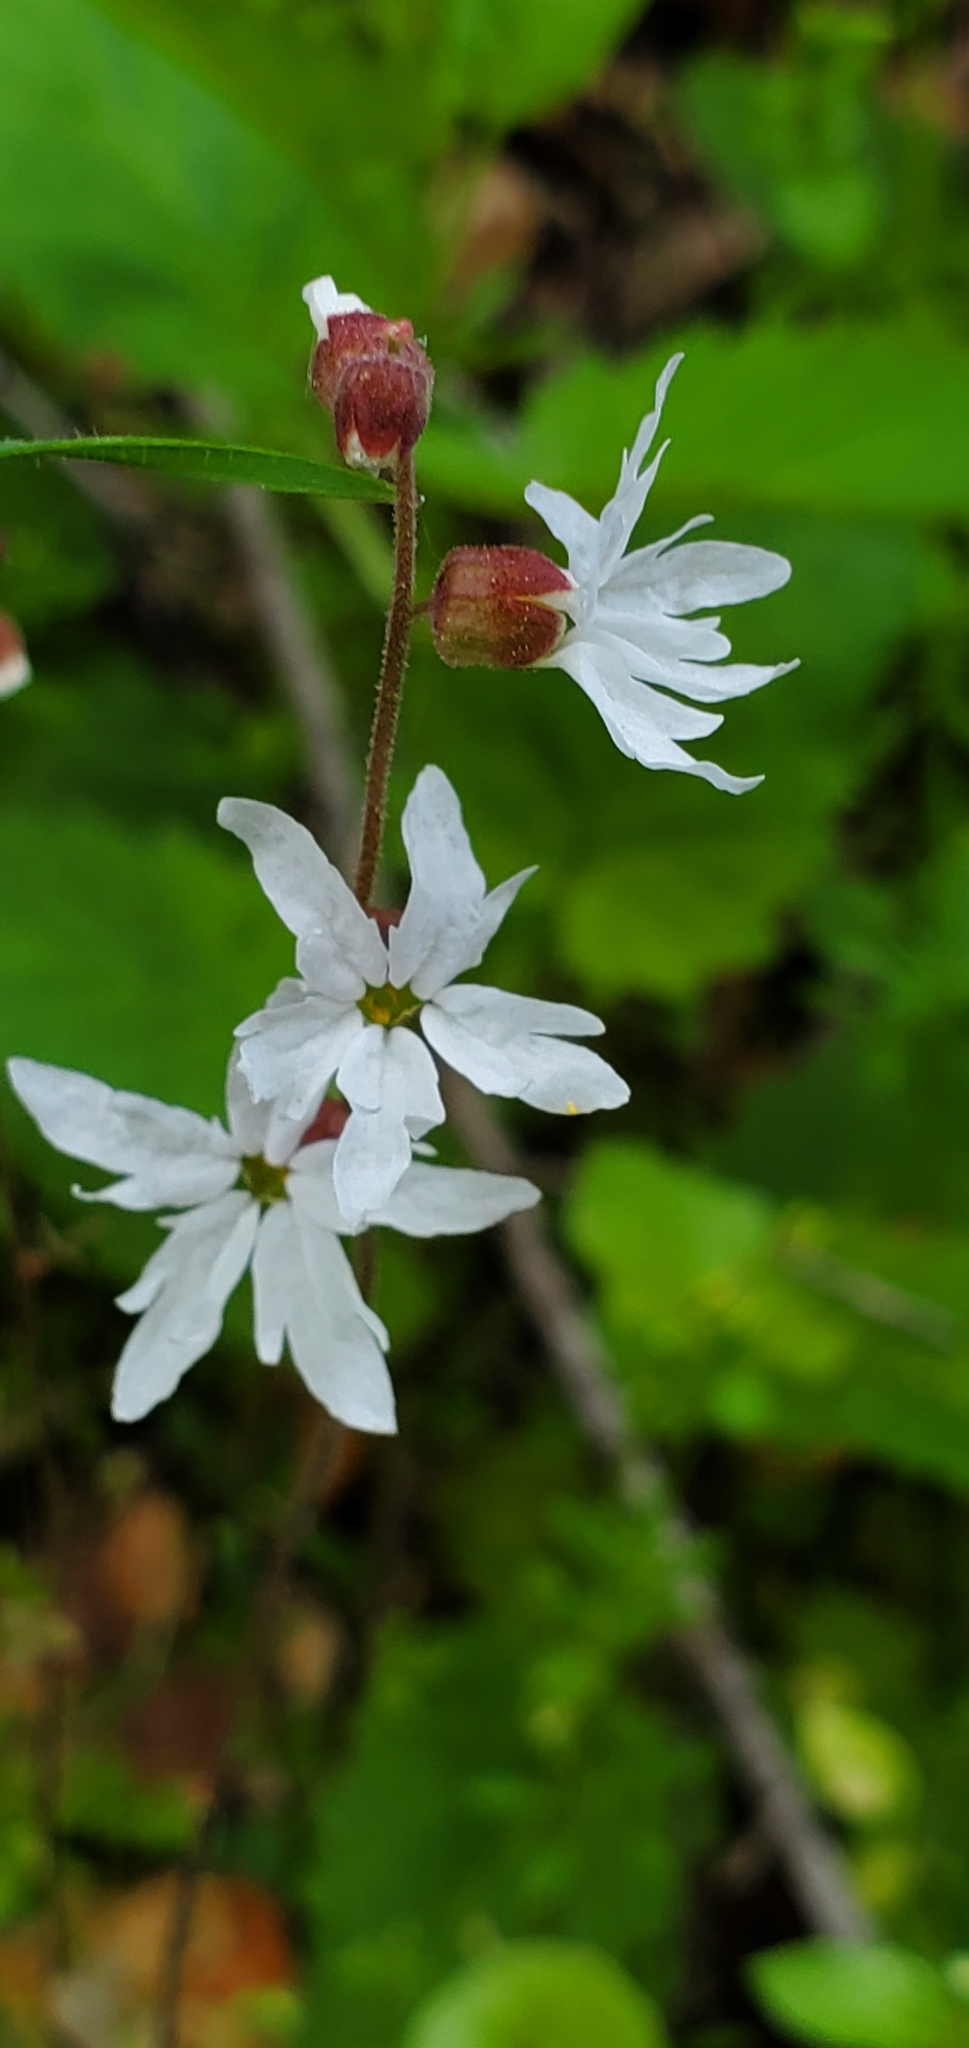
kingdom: Plantae
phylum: Tracheophyta
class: Magnoliopsida
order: Saxifragales
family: Saxifragaceae
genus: Lithophragma
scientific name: Lithophragma heterophyllum
